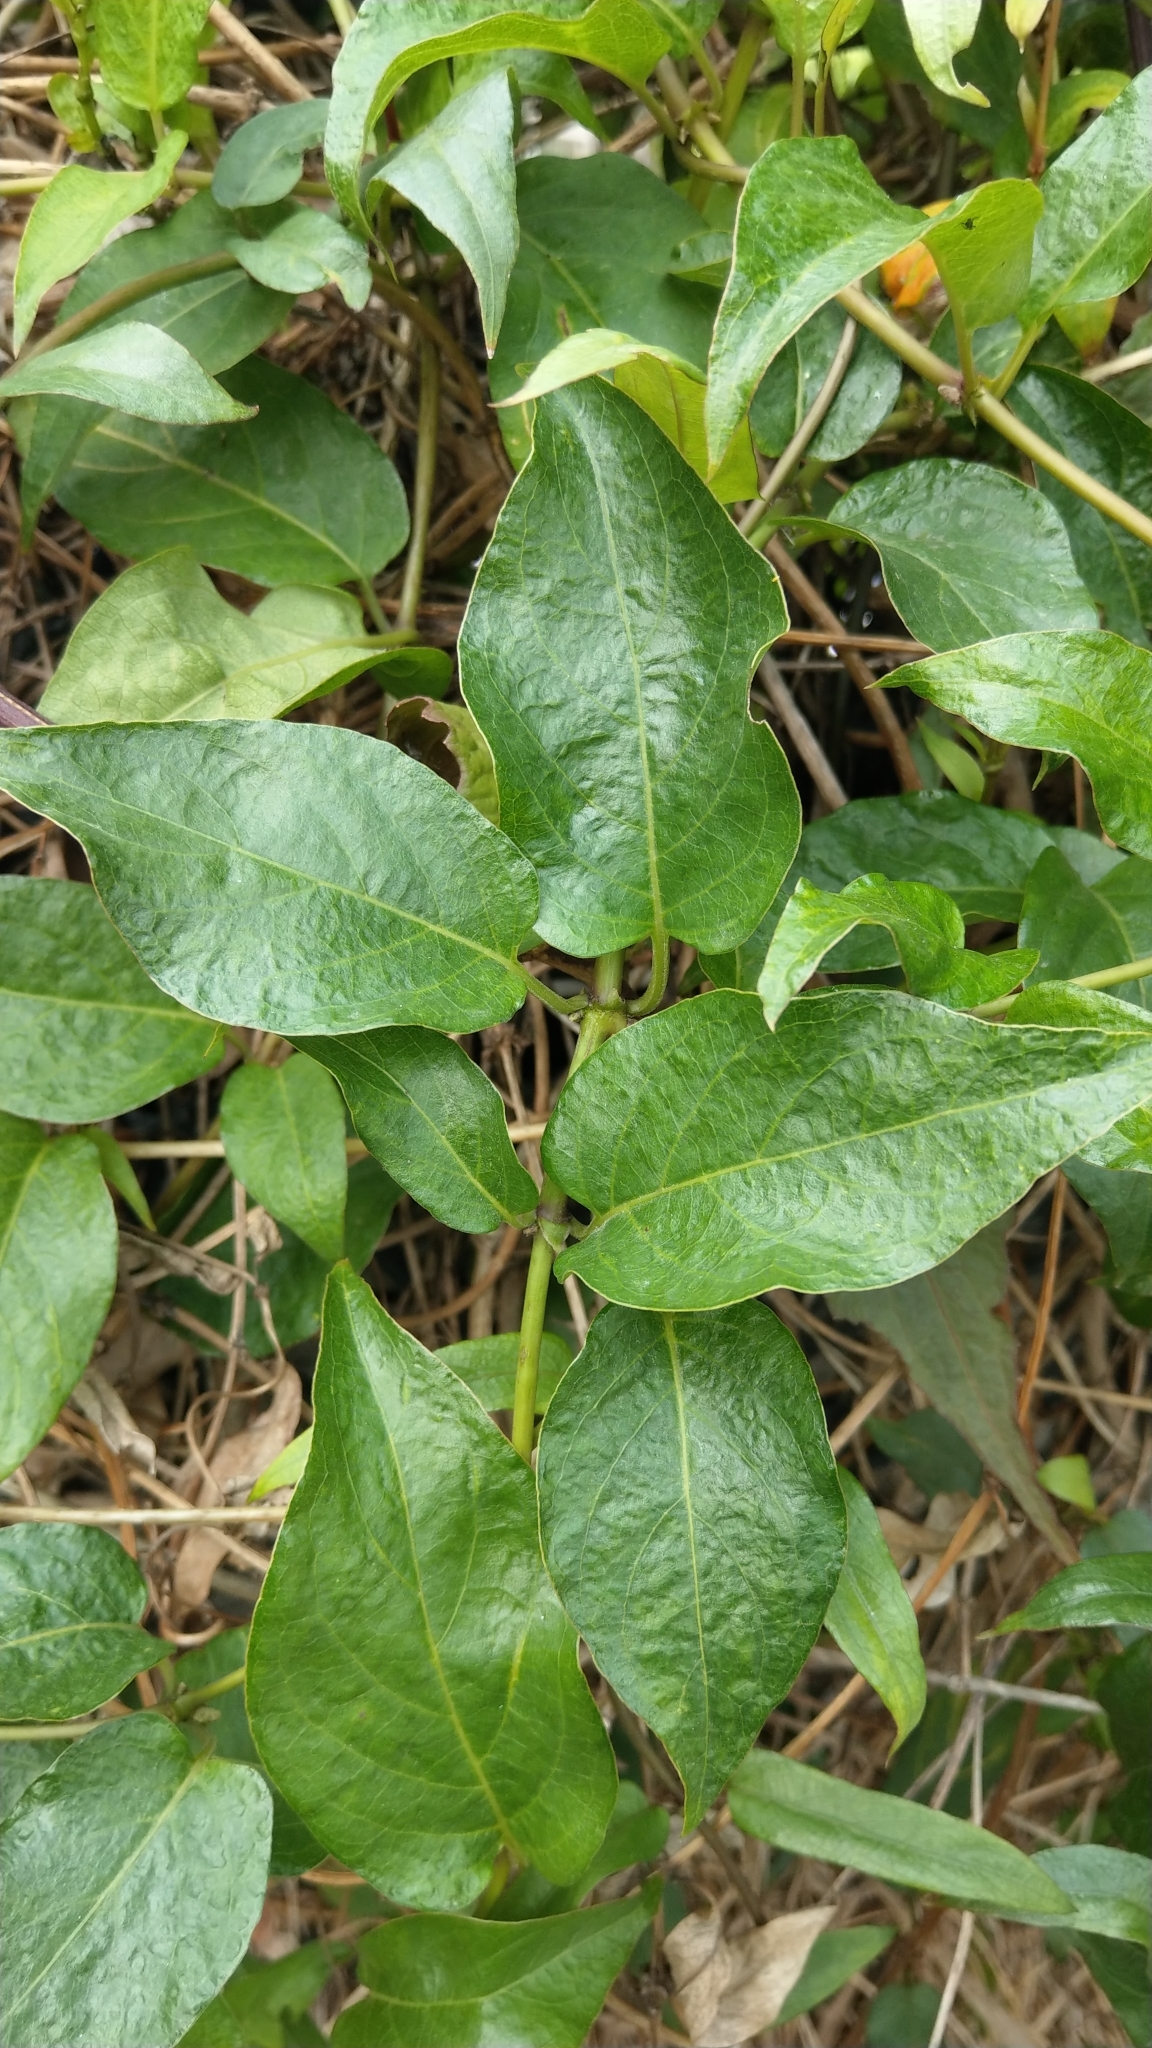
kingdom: Plantae
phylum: Tracheophyta
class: Magnoliopsida
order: Gentianales
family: Rubiaceae
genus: Paederia
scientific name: Paederia foetida
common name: Stinkvine
